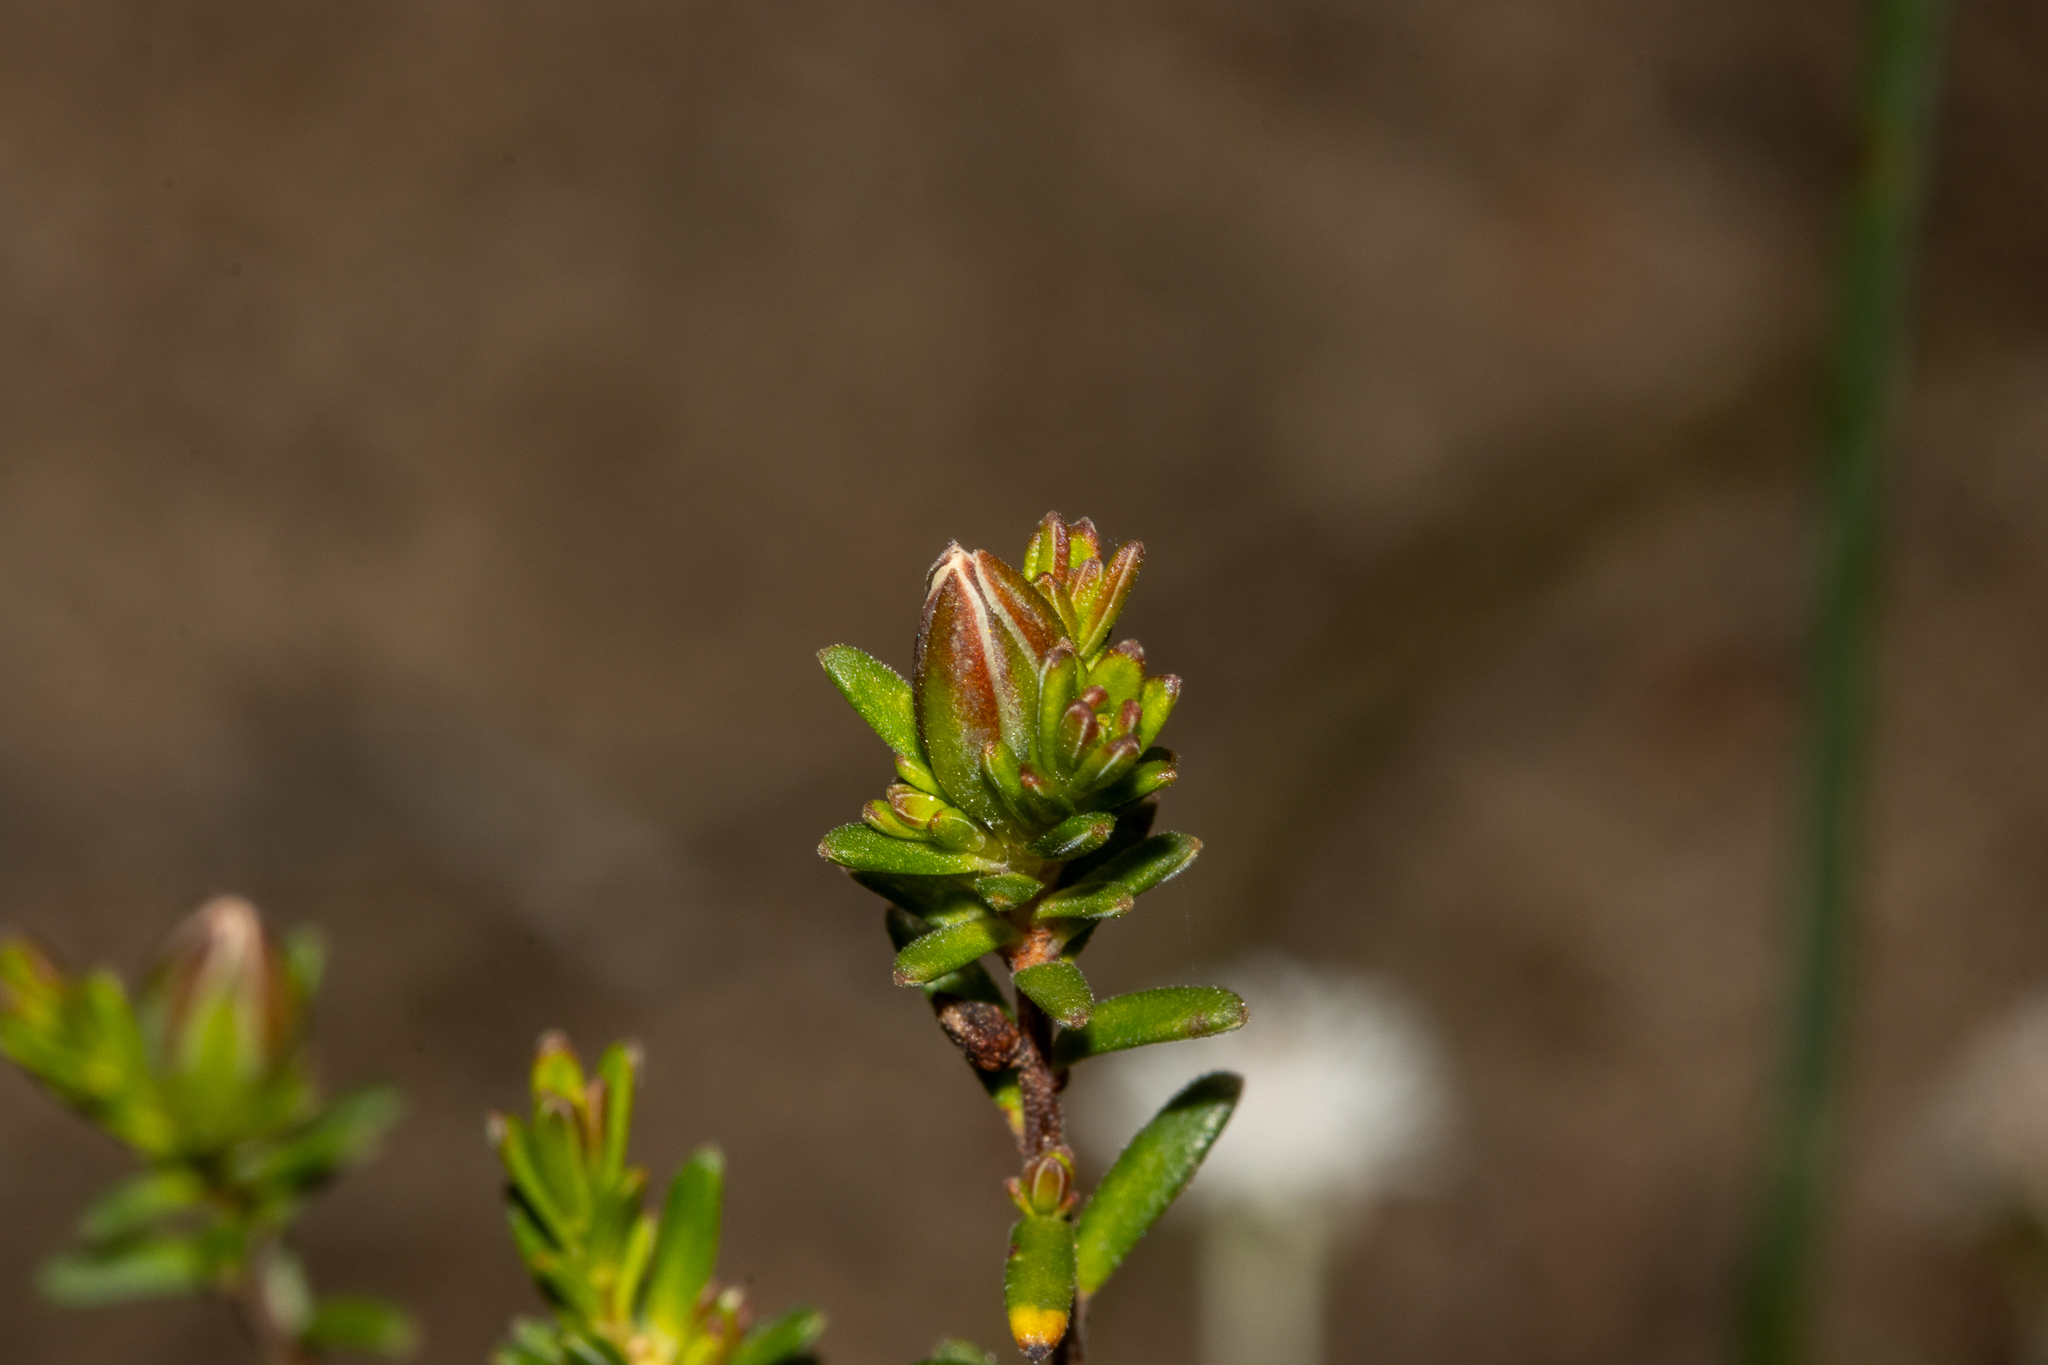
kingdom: Plantae
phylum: Tracheophyta
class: Magnoliopsida
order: Dilleniales
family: Dilleniaceae
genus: Hibbertia
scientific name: Hibbertia devitata
